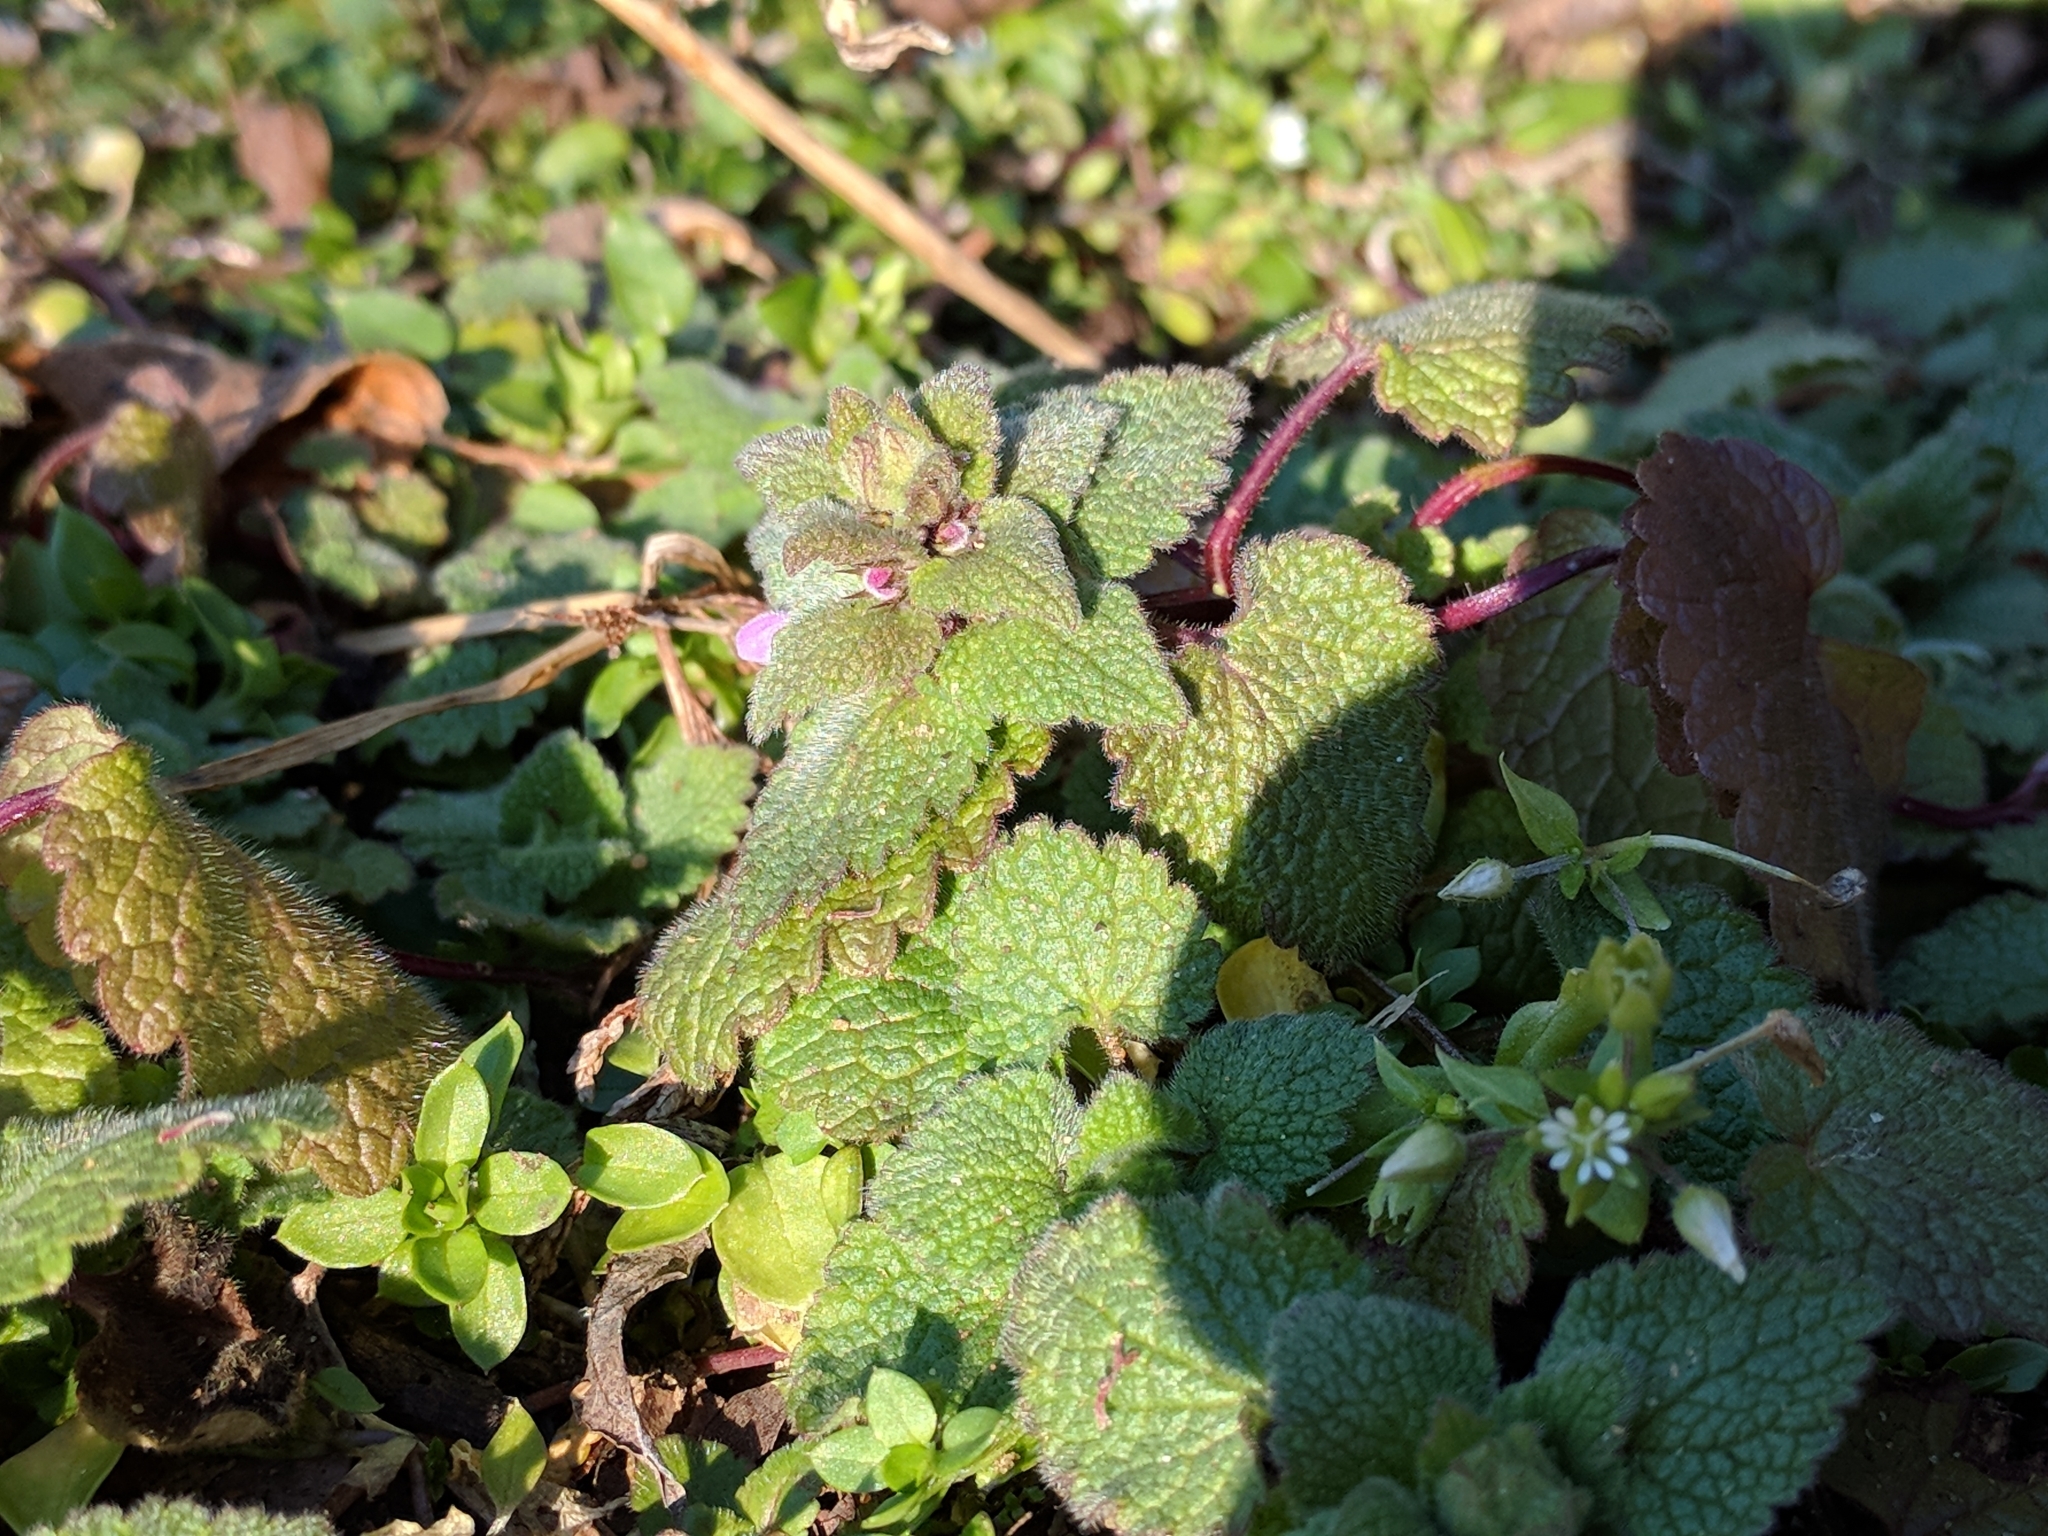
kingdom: Plantae
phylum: Tracheophyta
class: Magnoliopsida
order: Lamiales
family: Lamiaceae
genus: Lamium
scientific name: Lamium purpureum
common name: Red dead-nettle
